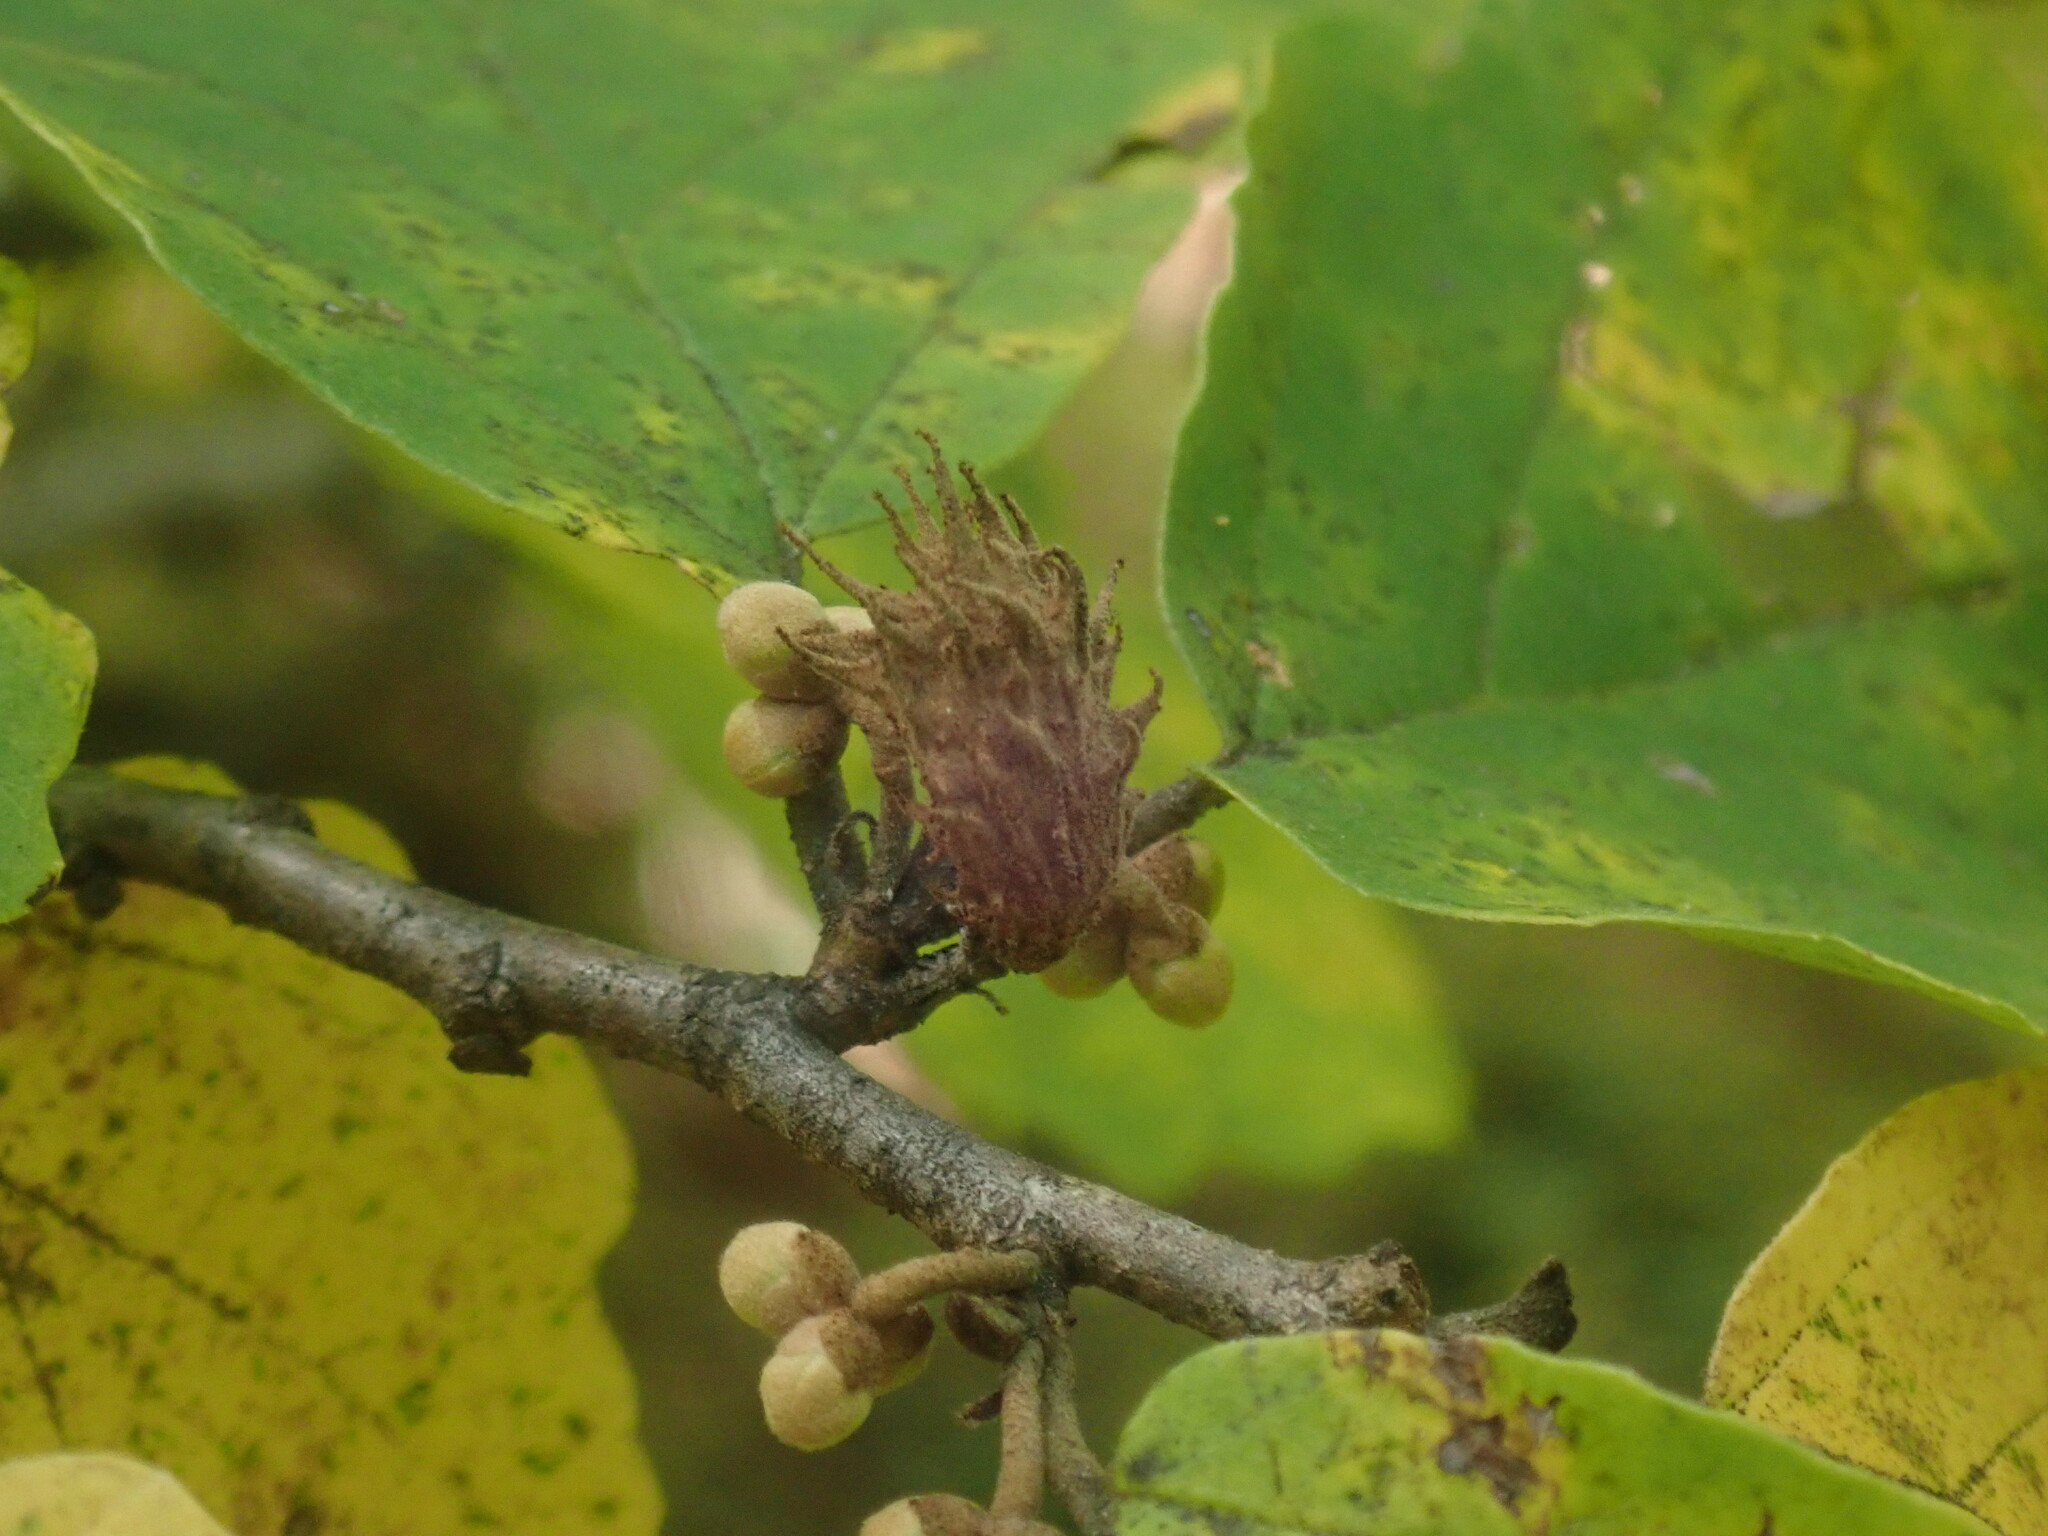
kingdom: Animalia
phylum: Arthropoda
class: Insecta
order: Hemiptera
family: Aphididae
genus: Hamamelistes
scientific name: Hamamelistes spinosus
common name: Witch hazel gall aphid
